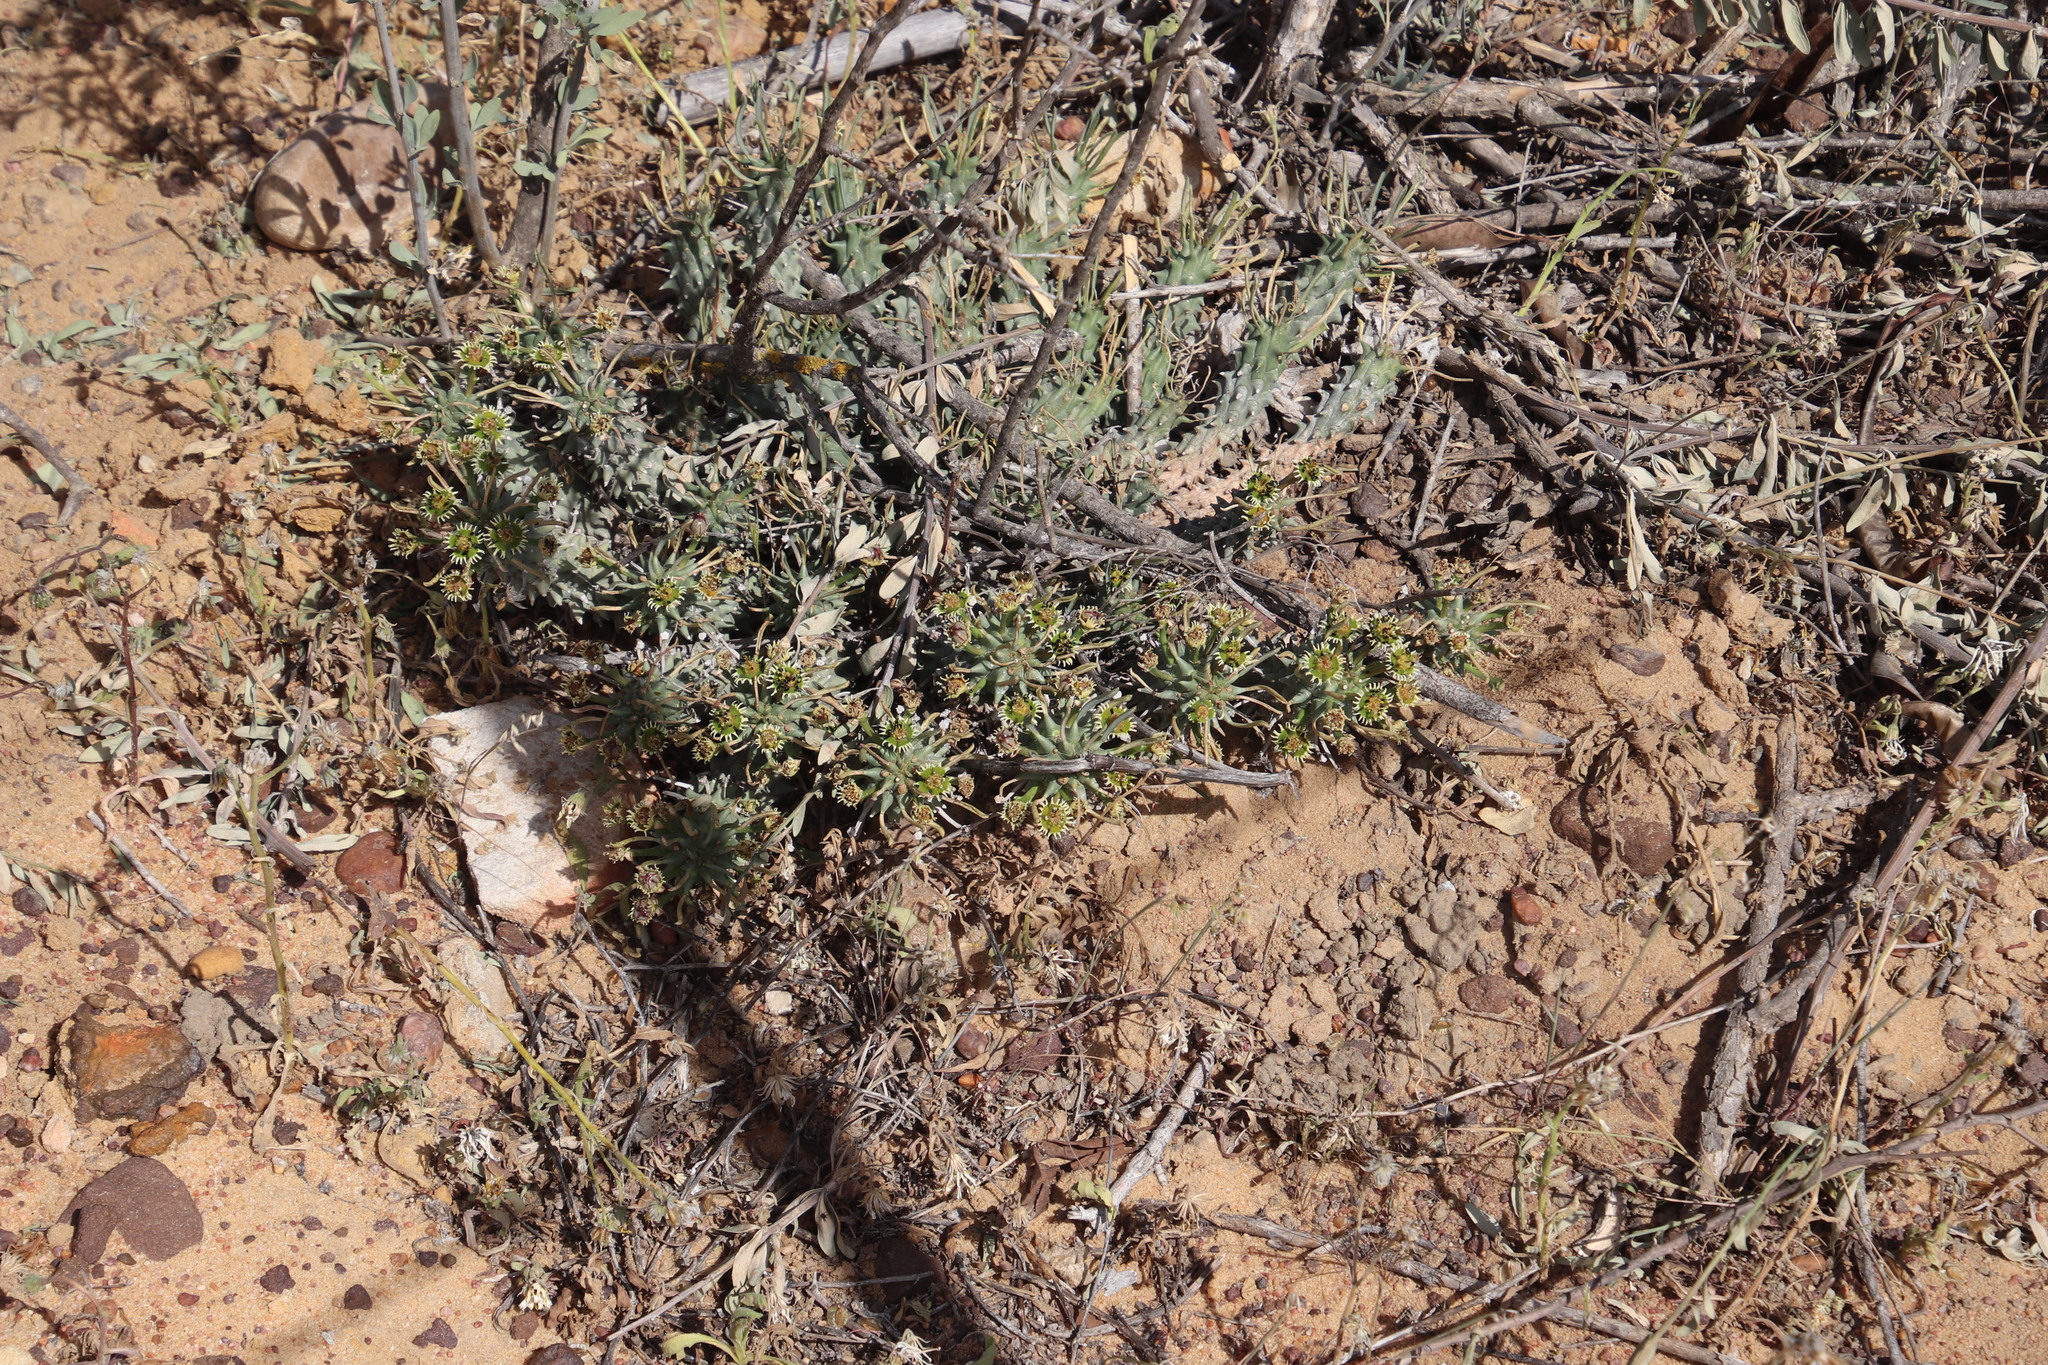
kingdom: Plantae
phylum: Tracheophyta
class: Magnoliopsida
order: Malpighiales
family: Euphorbiaceae
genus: Euphorbia
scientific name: Euphorbia caput-medusae
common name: Medusa's-head
